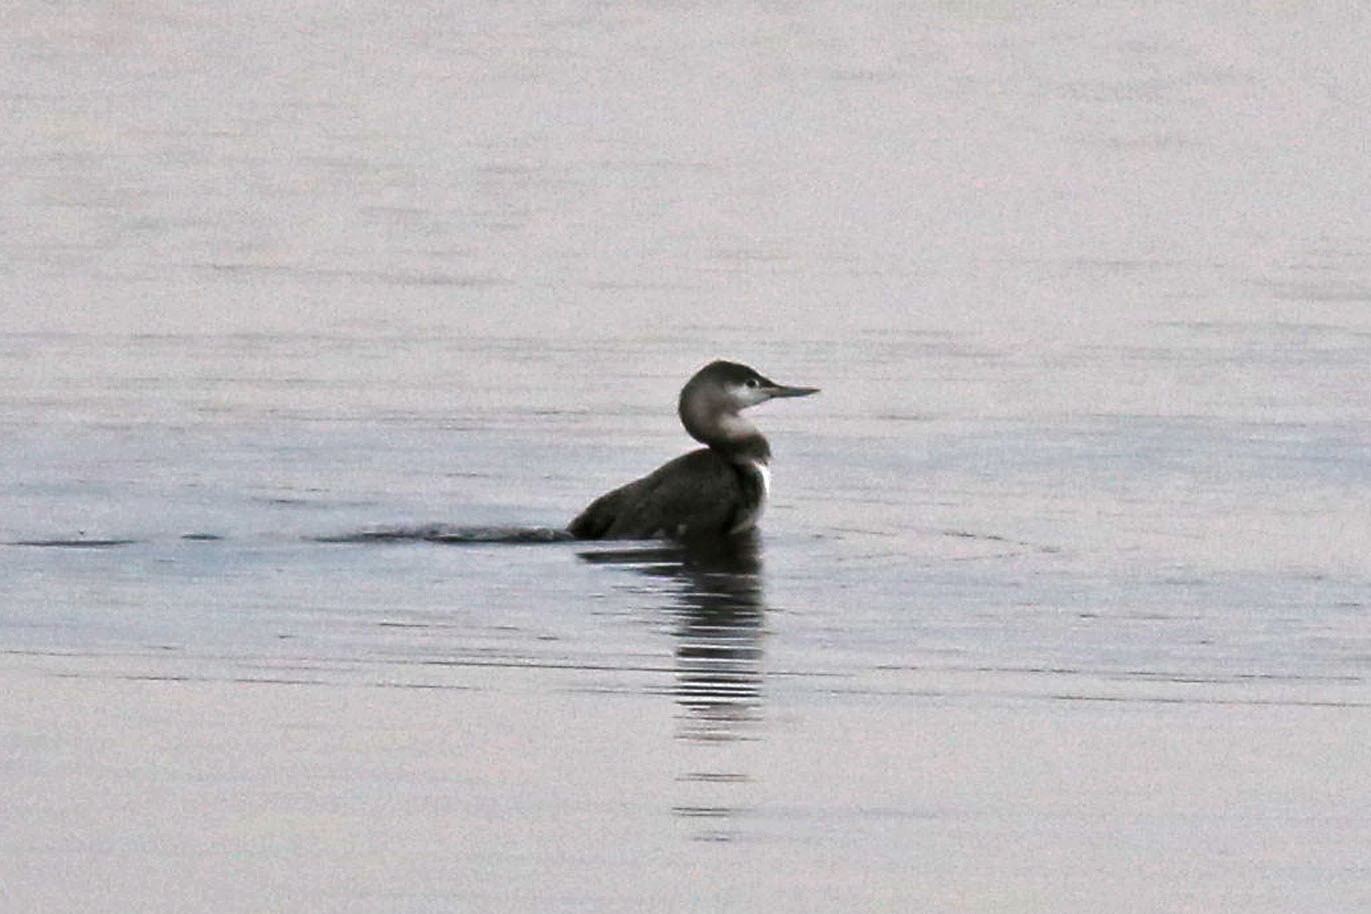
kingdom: Animalia
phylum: Chordata
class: Aves
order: Gaviiformes
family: Gaviidae
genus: Gavia
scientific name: Gavia stellata
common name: Red-throated loon
